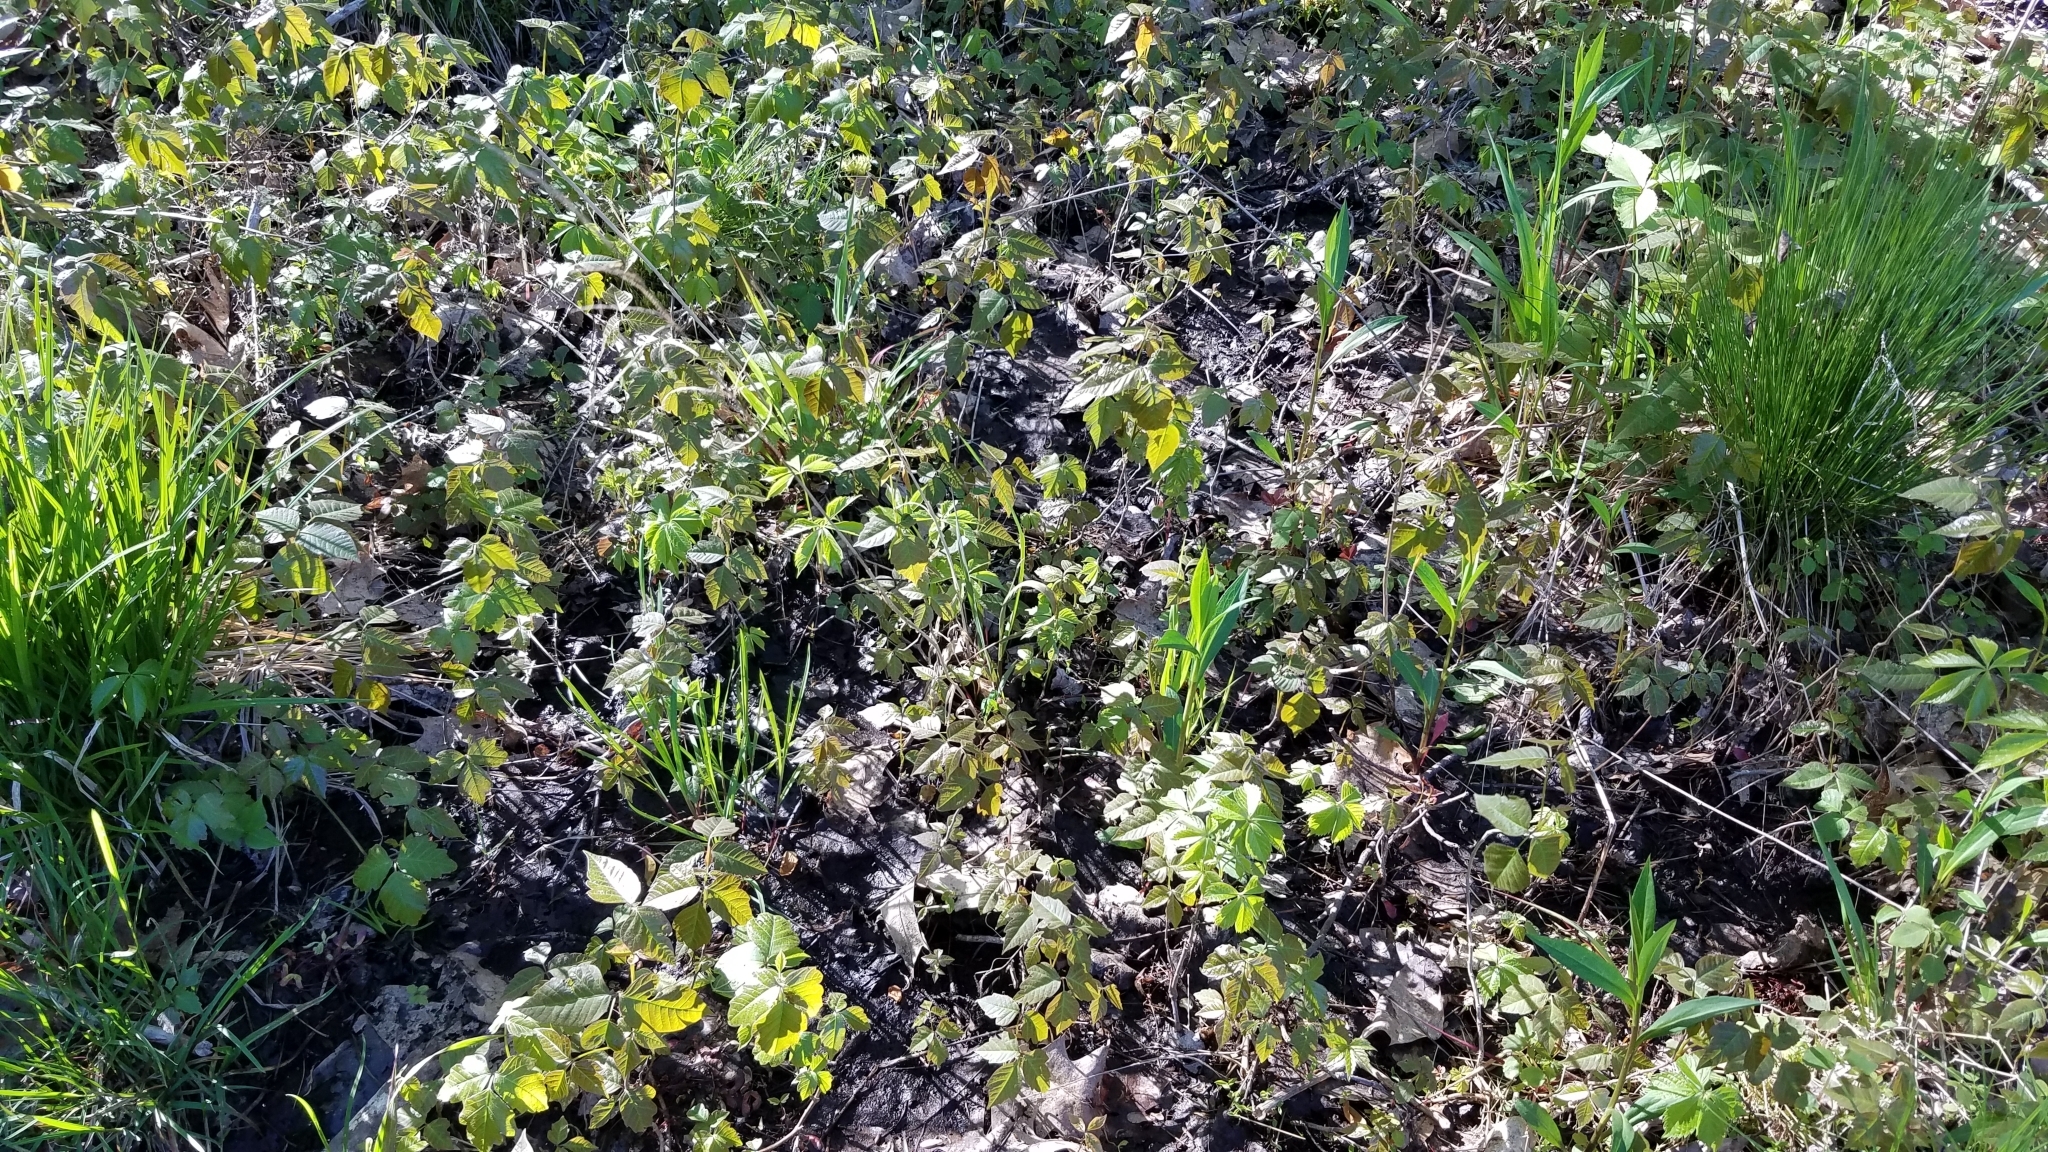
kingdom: Plantae
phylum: Tracheophyta
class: Magnoliopsida
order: Sapindales
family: Anacardiaceae
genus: Toxicodendron
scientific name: Toxicodendron radicans
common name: Poison ivy
